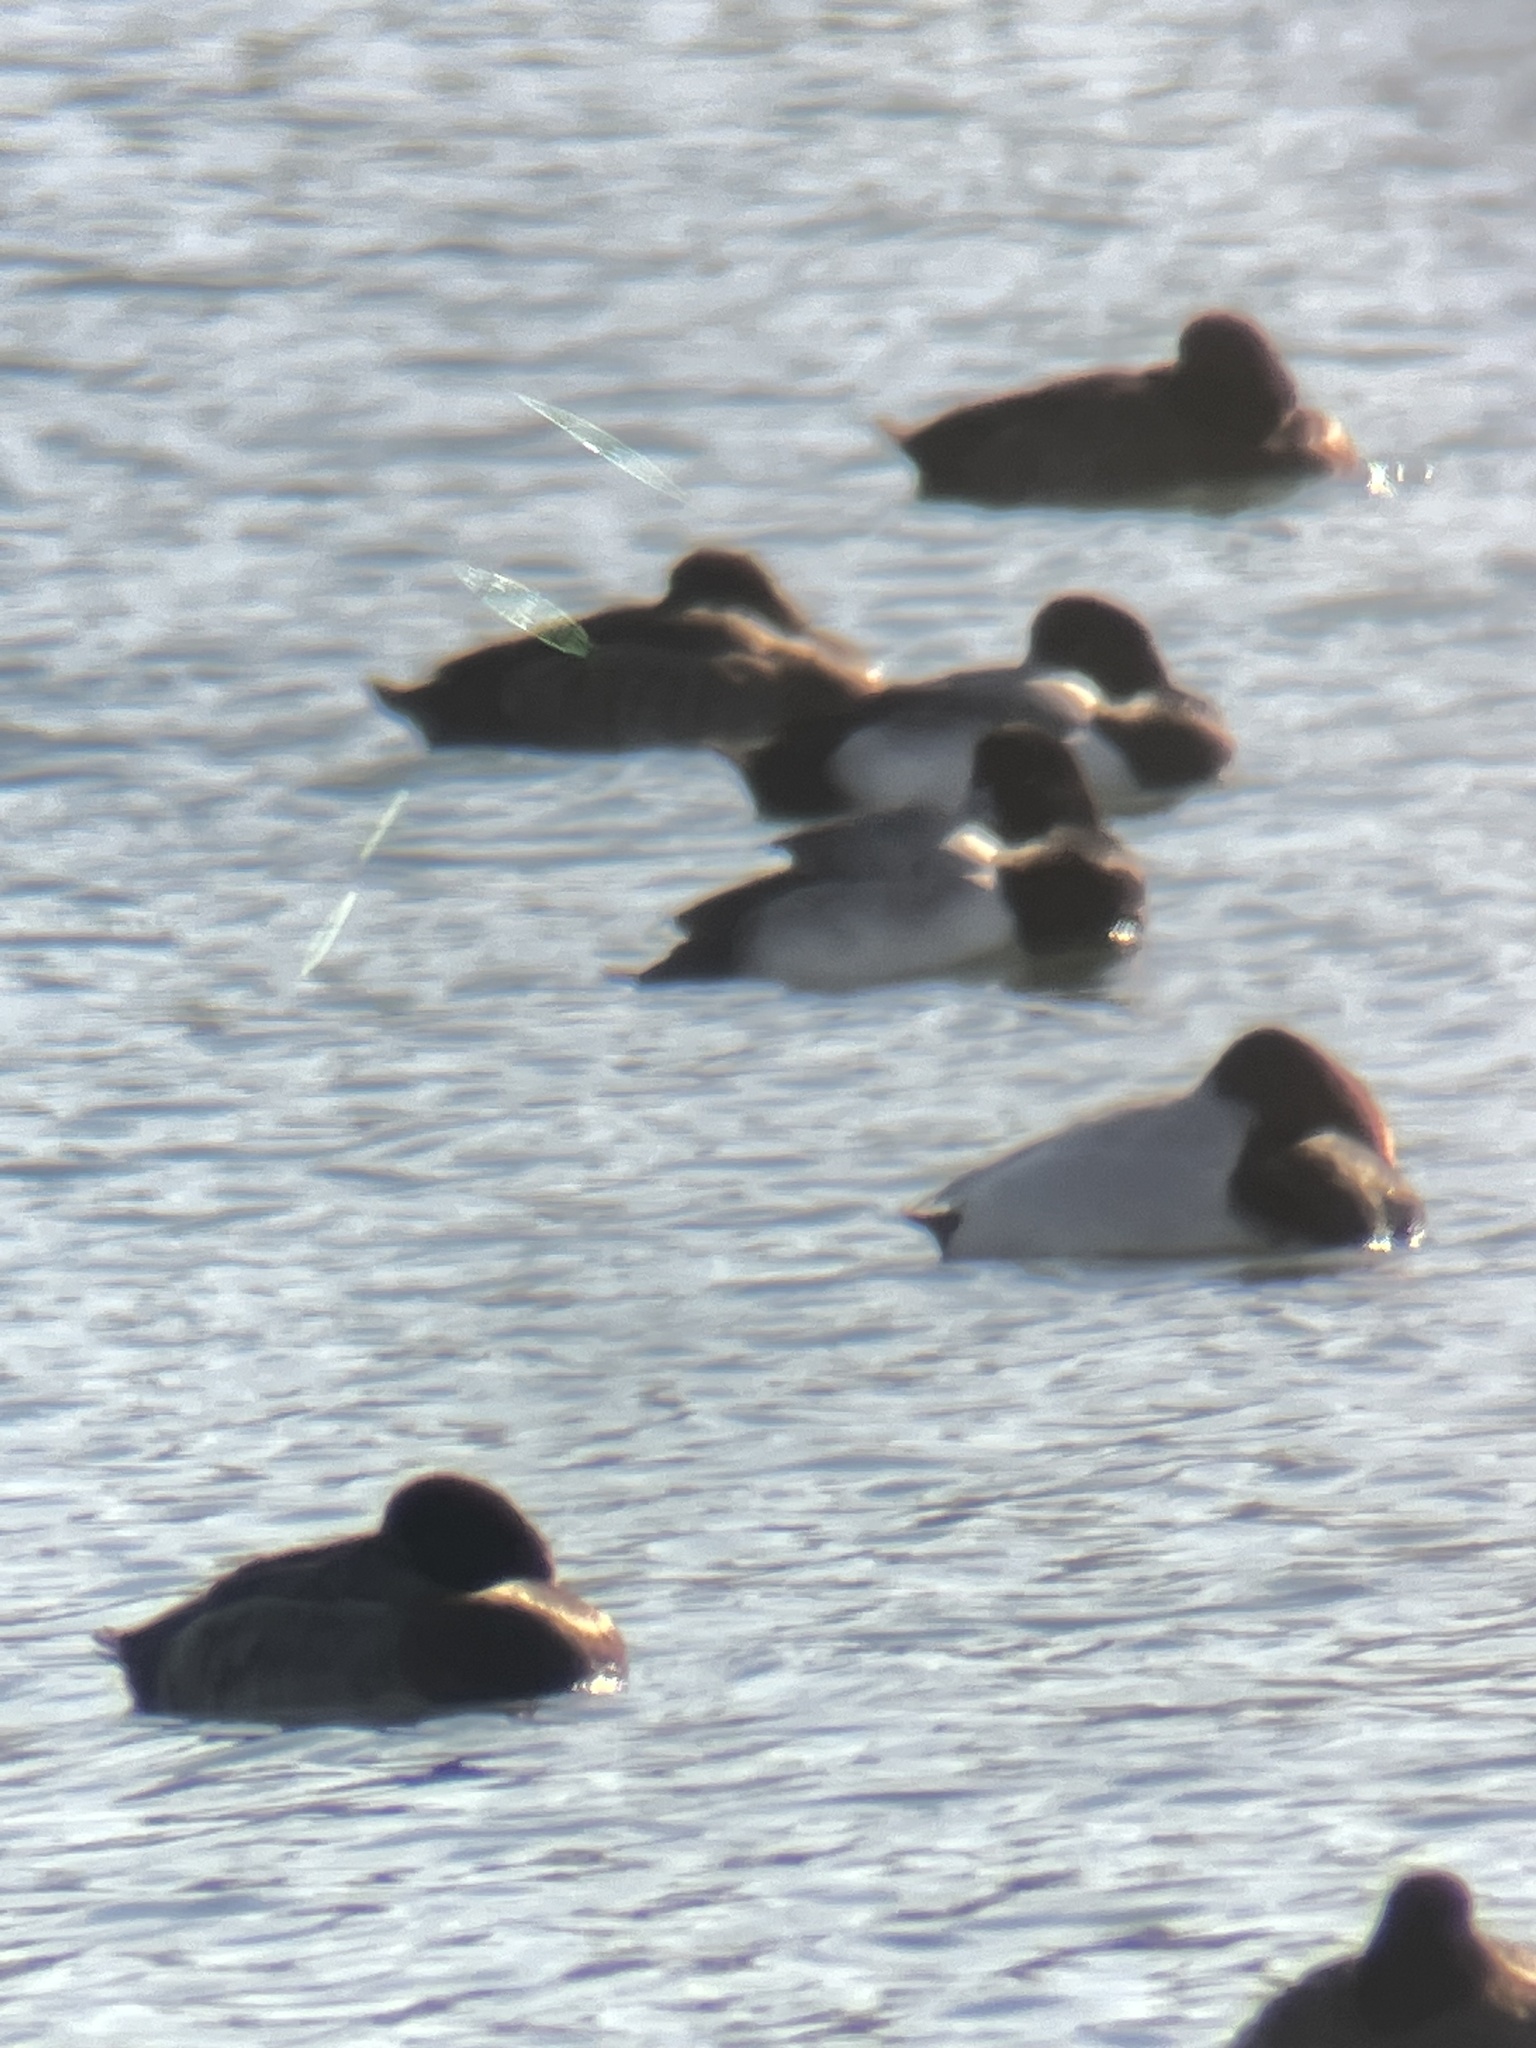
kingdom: Animalia
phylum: Chordata
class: Aves
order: Anseriformes
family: Anatidae
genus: Aythya
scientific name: Aythya valisineria
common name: Canvasback
